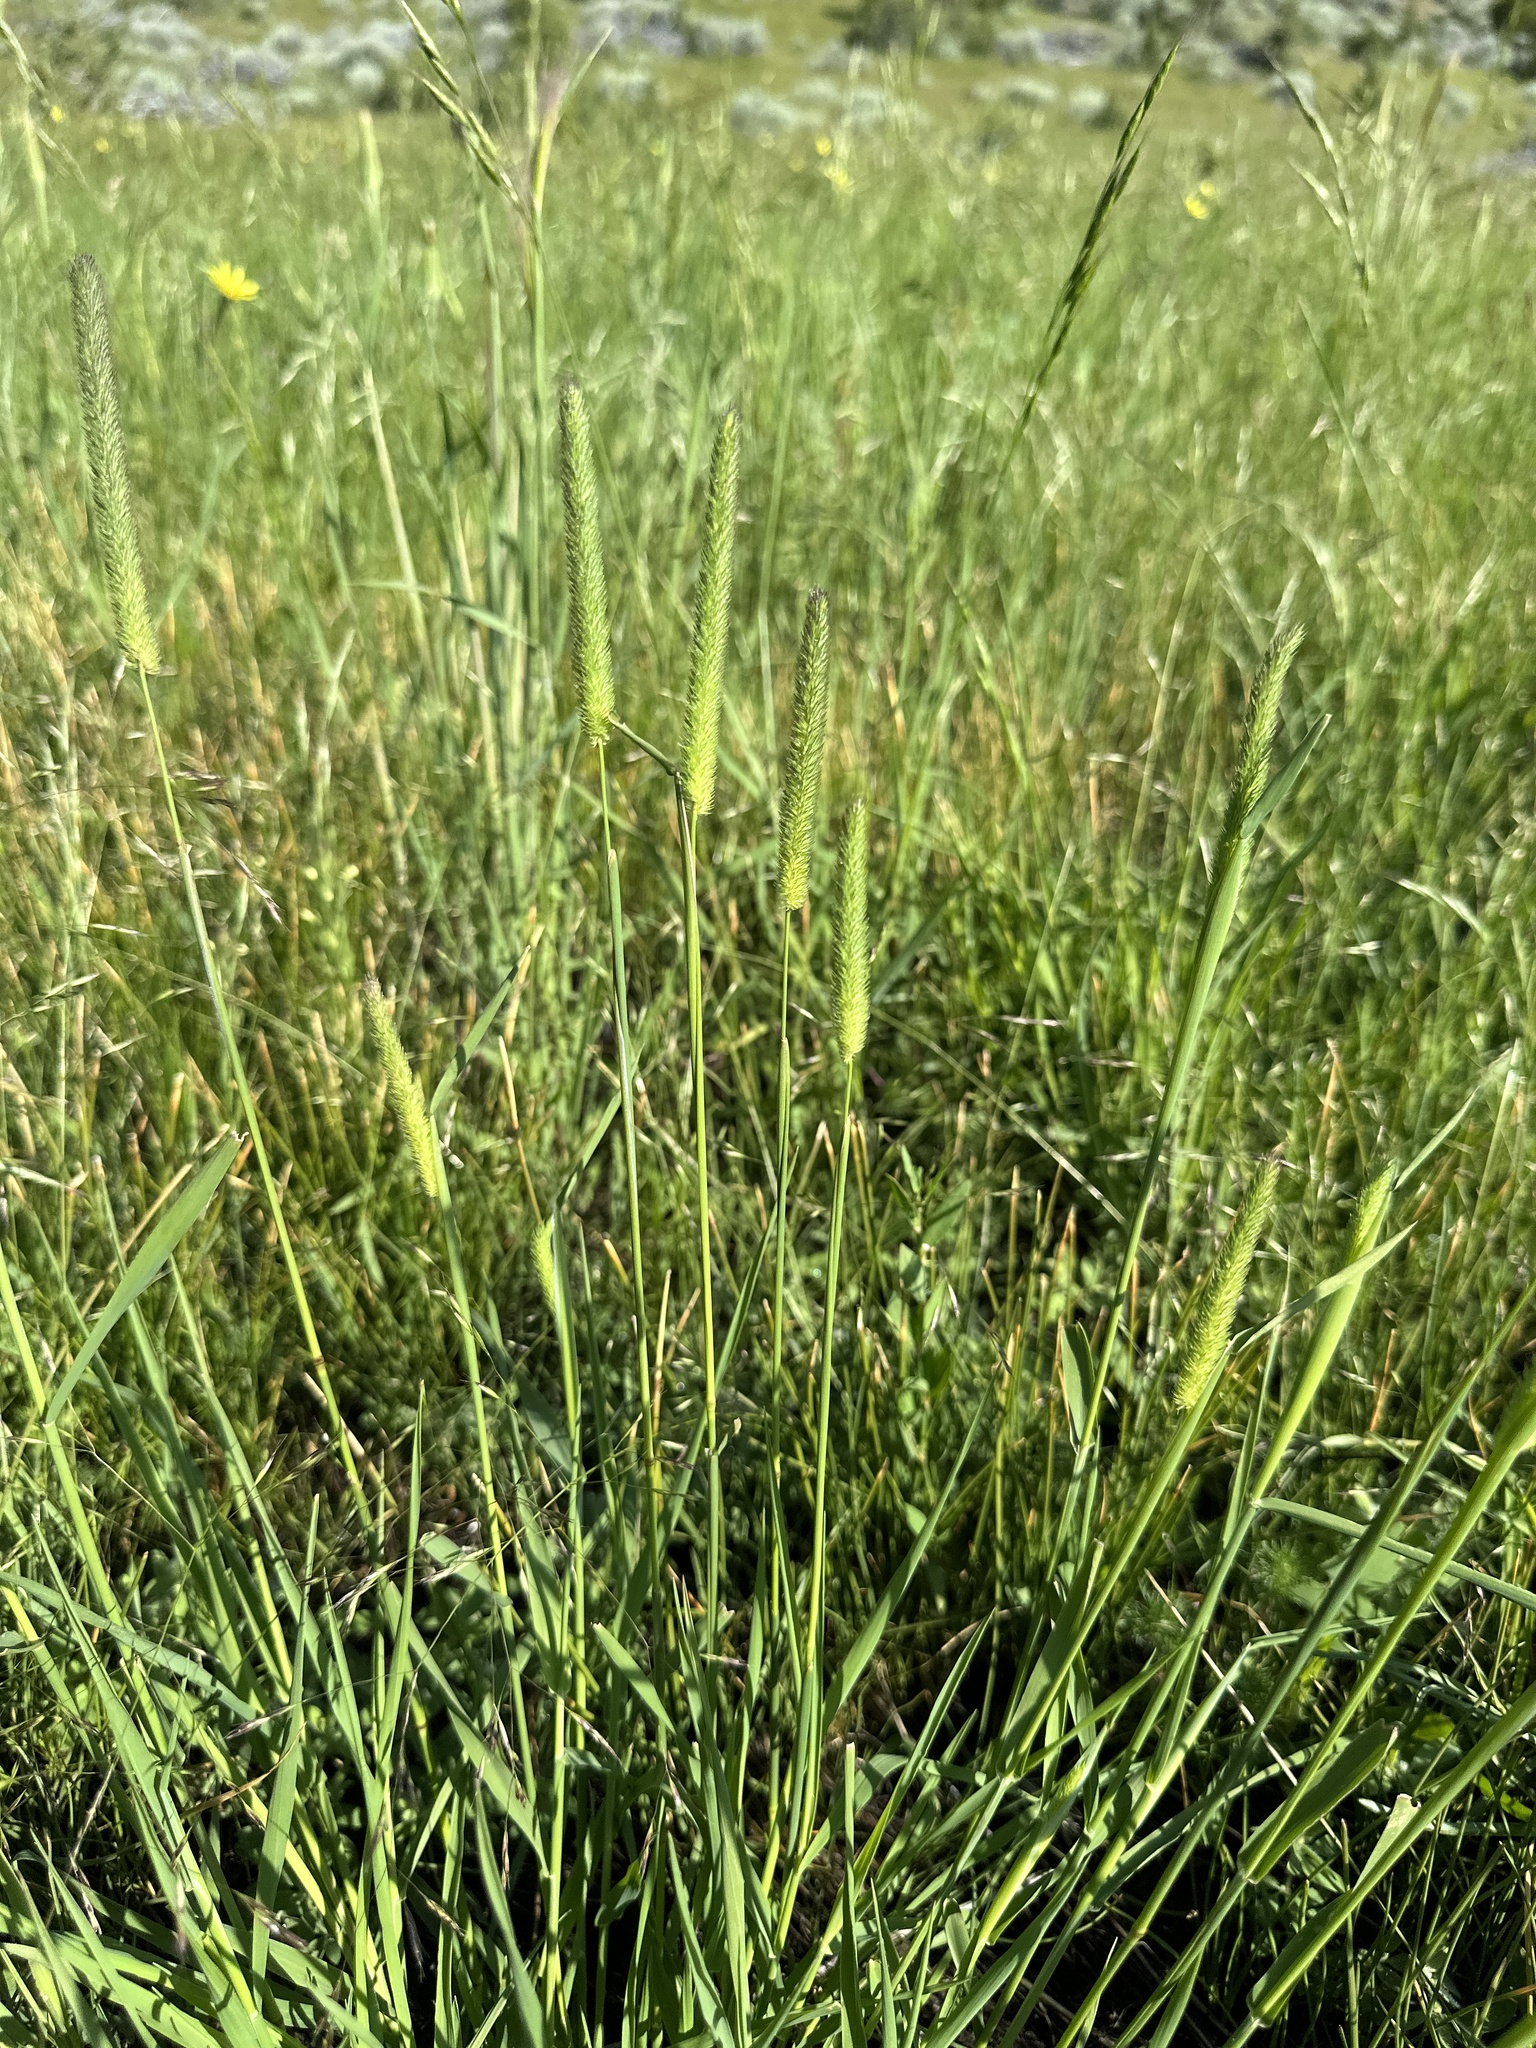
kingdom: Plantae
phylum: Tracheophyta
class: Liliopsida
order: Poales
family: Poaceae
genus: Phleum
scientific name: Phleum pratense
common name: Timothy grass
